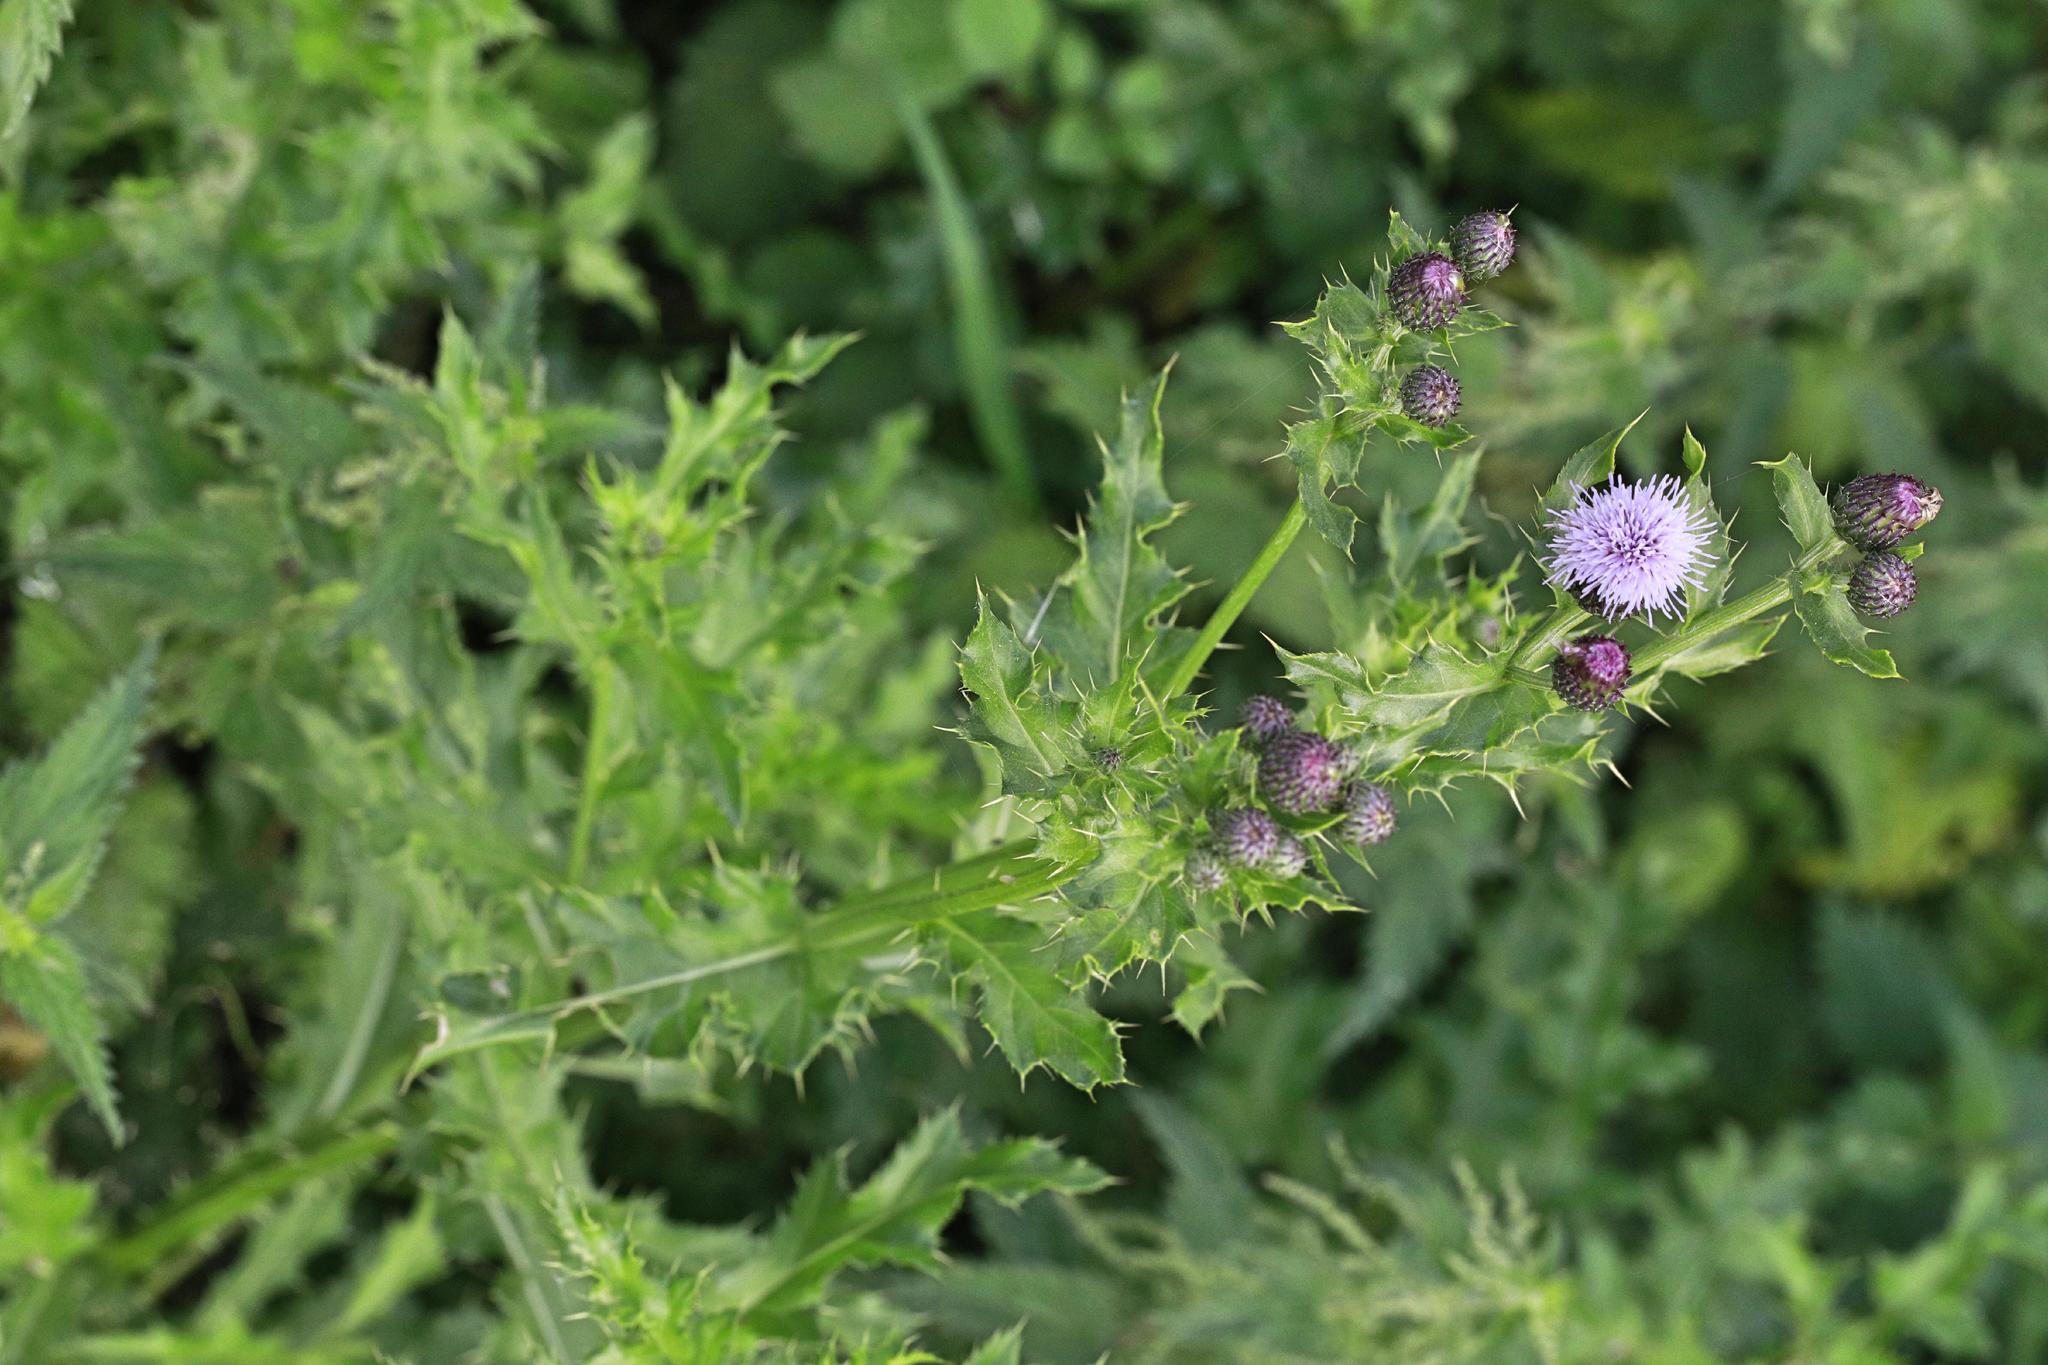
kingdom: Plantae
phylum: Tracheophyta
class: Magnoliopsida
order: Asterales
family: Asteraceae
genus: Cirsium
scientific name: Cirsium arvense
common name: Creeping thistle
